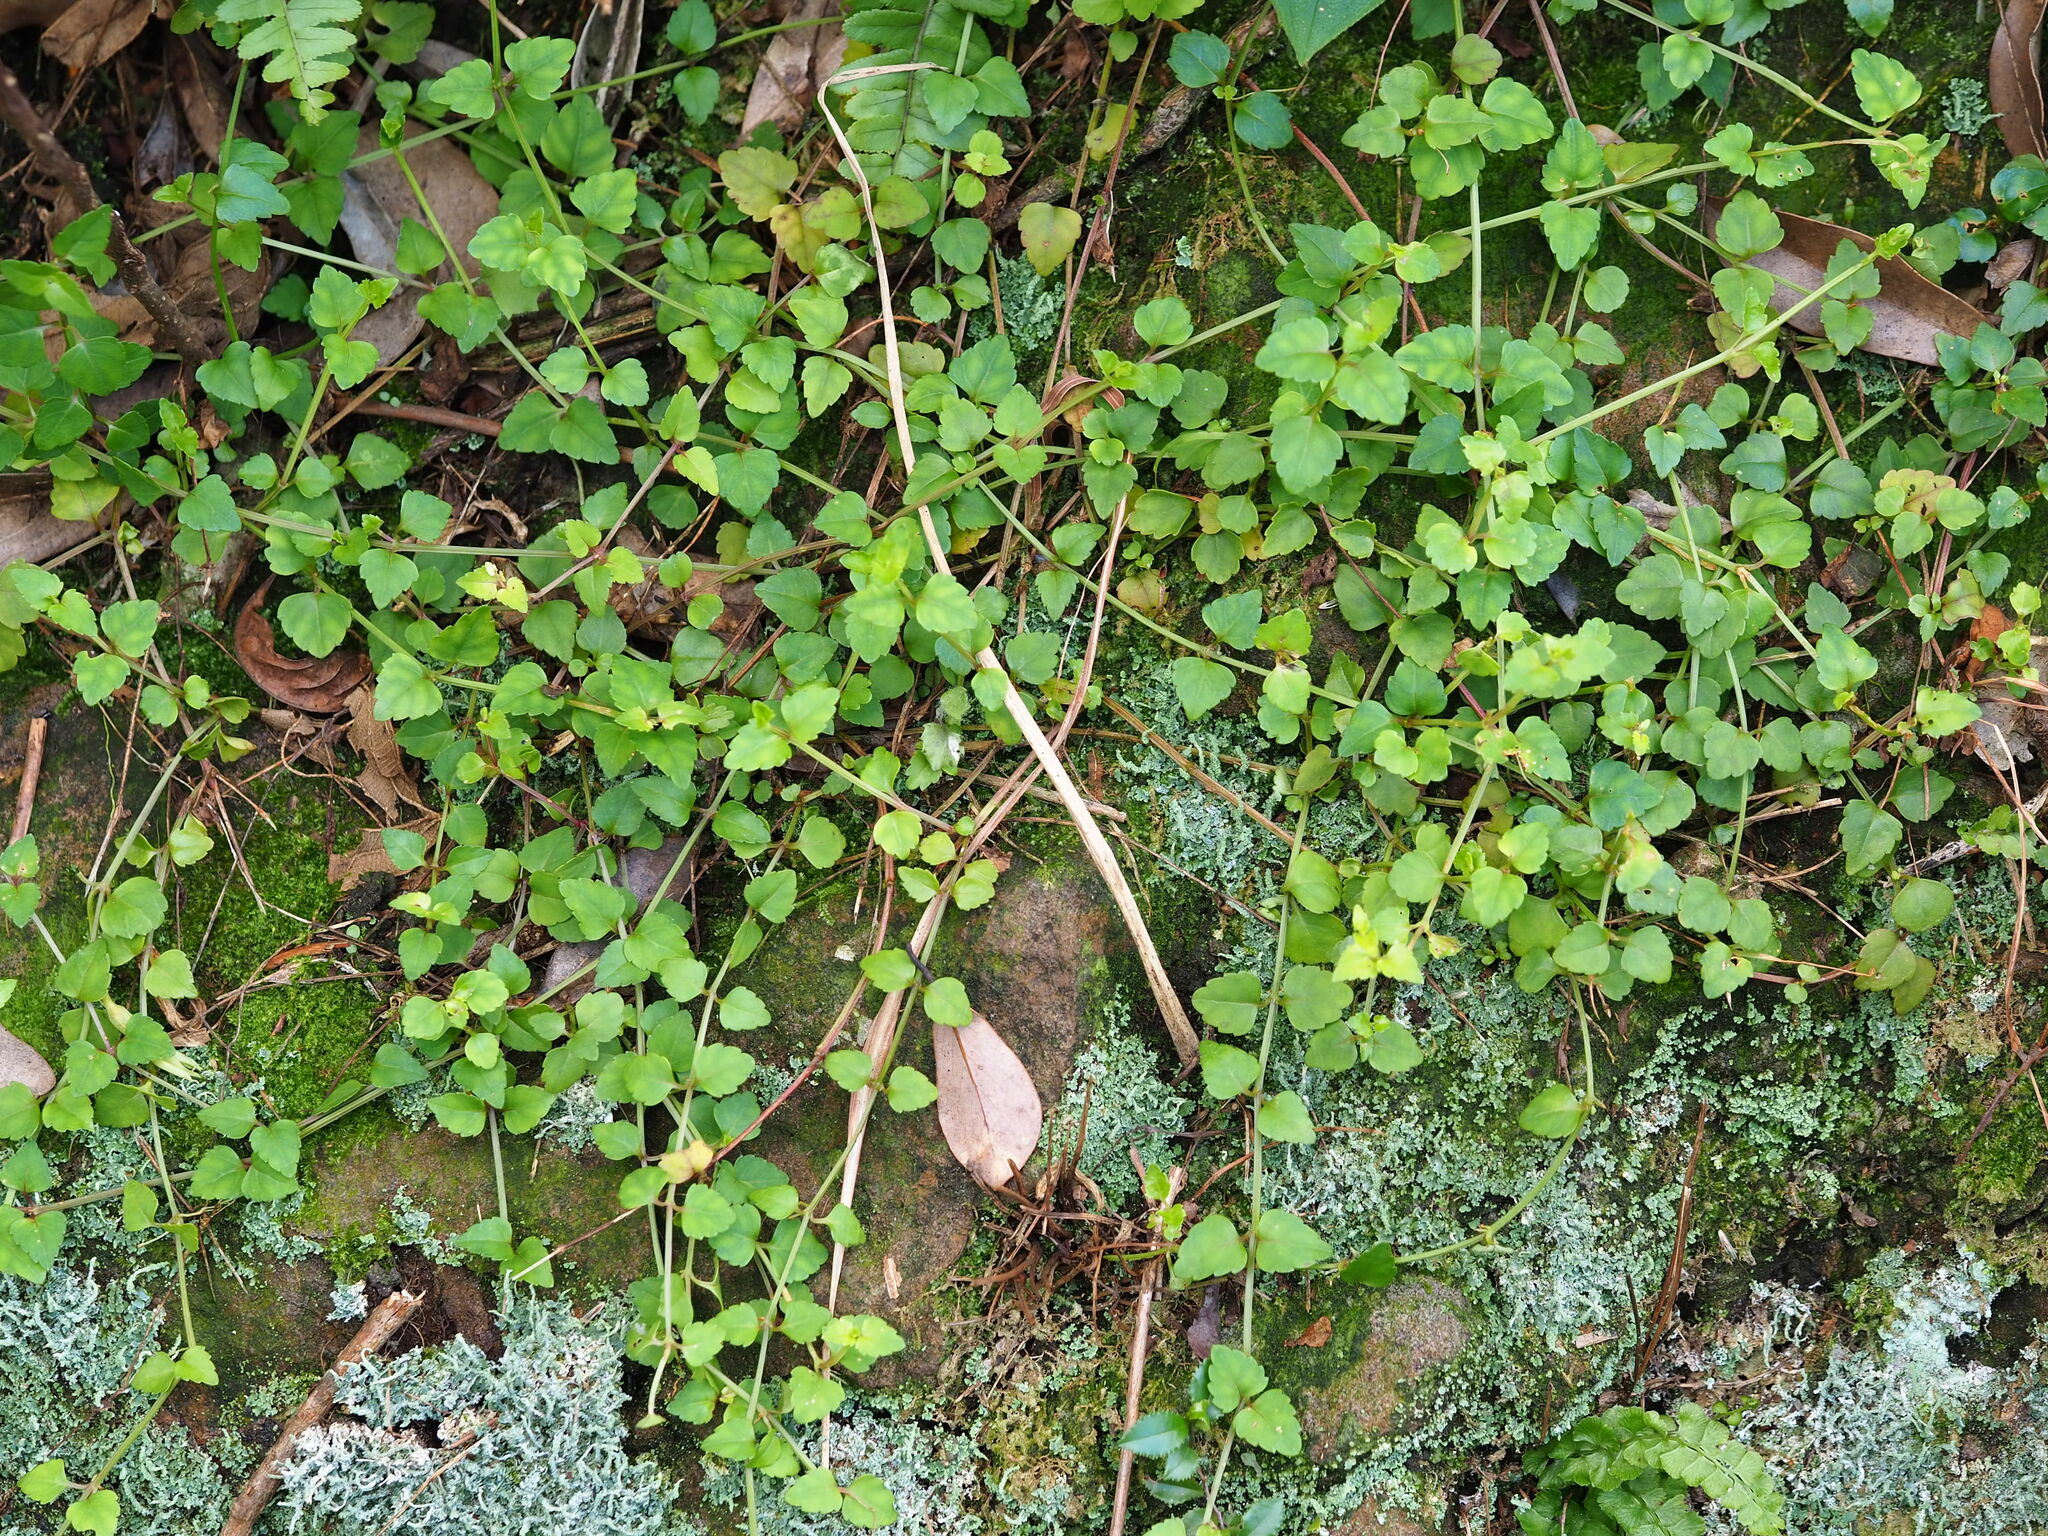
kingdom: Plantae
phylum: Tracheophyta
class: Magnoliopsida
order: Lamiales
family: Linderniaceae
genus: Torenia
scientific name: Torenia concolor
